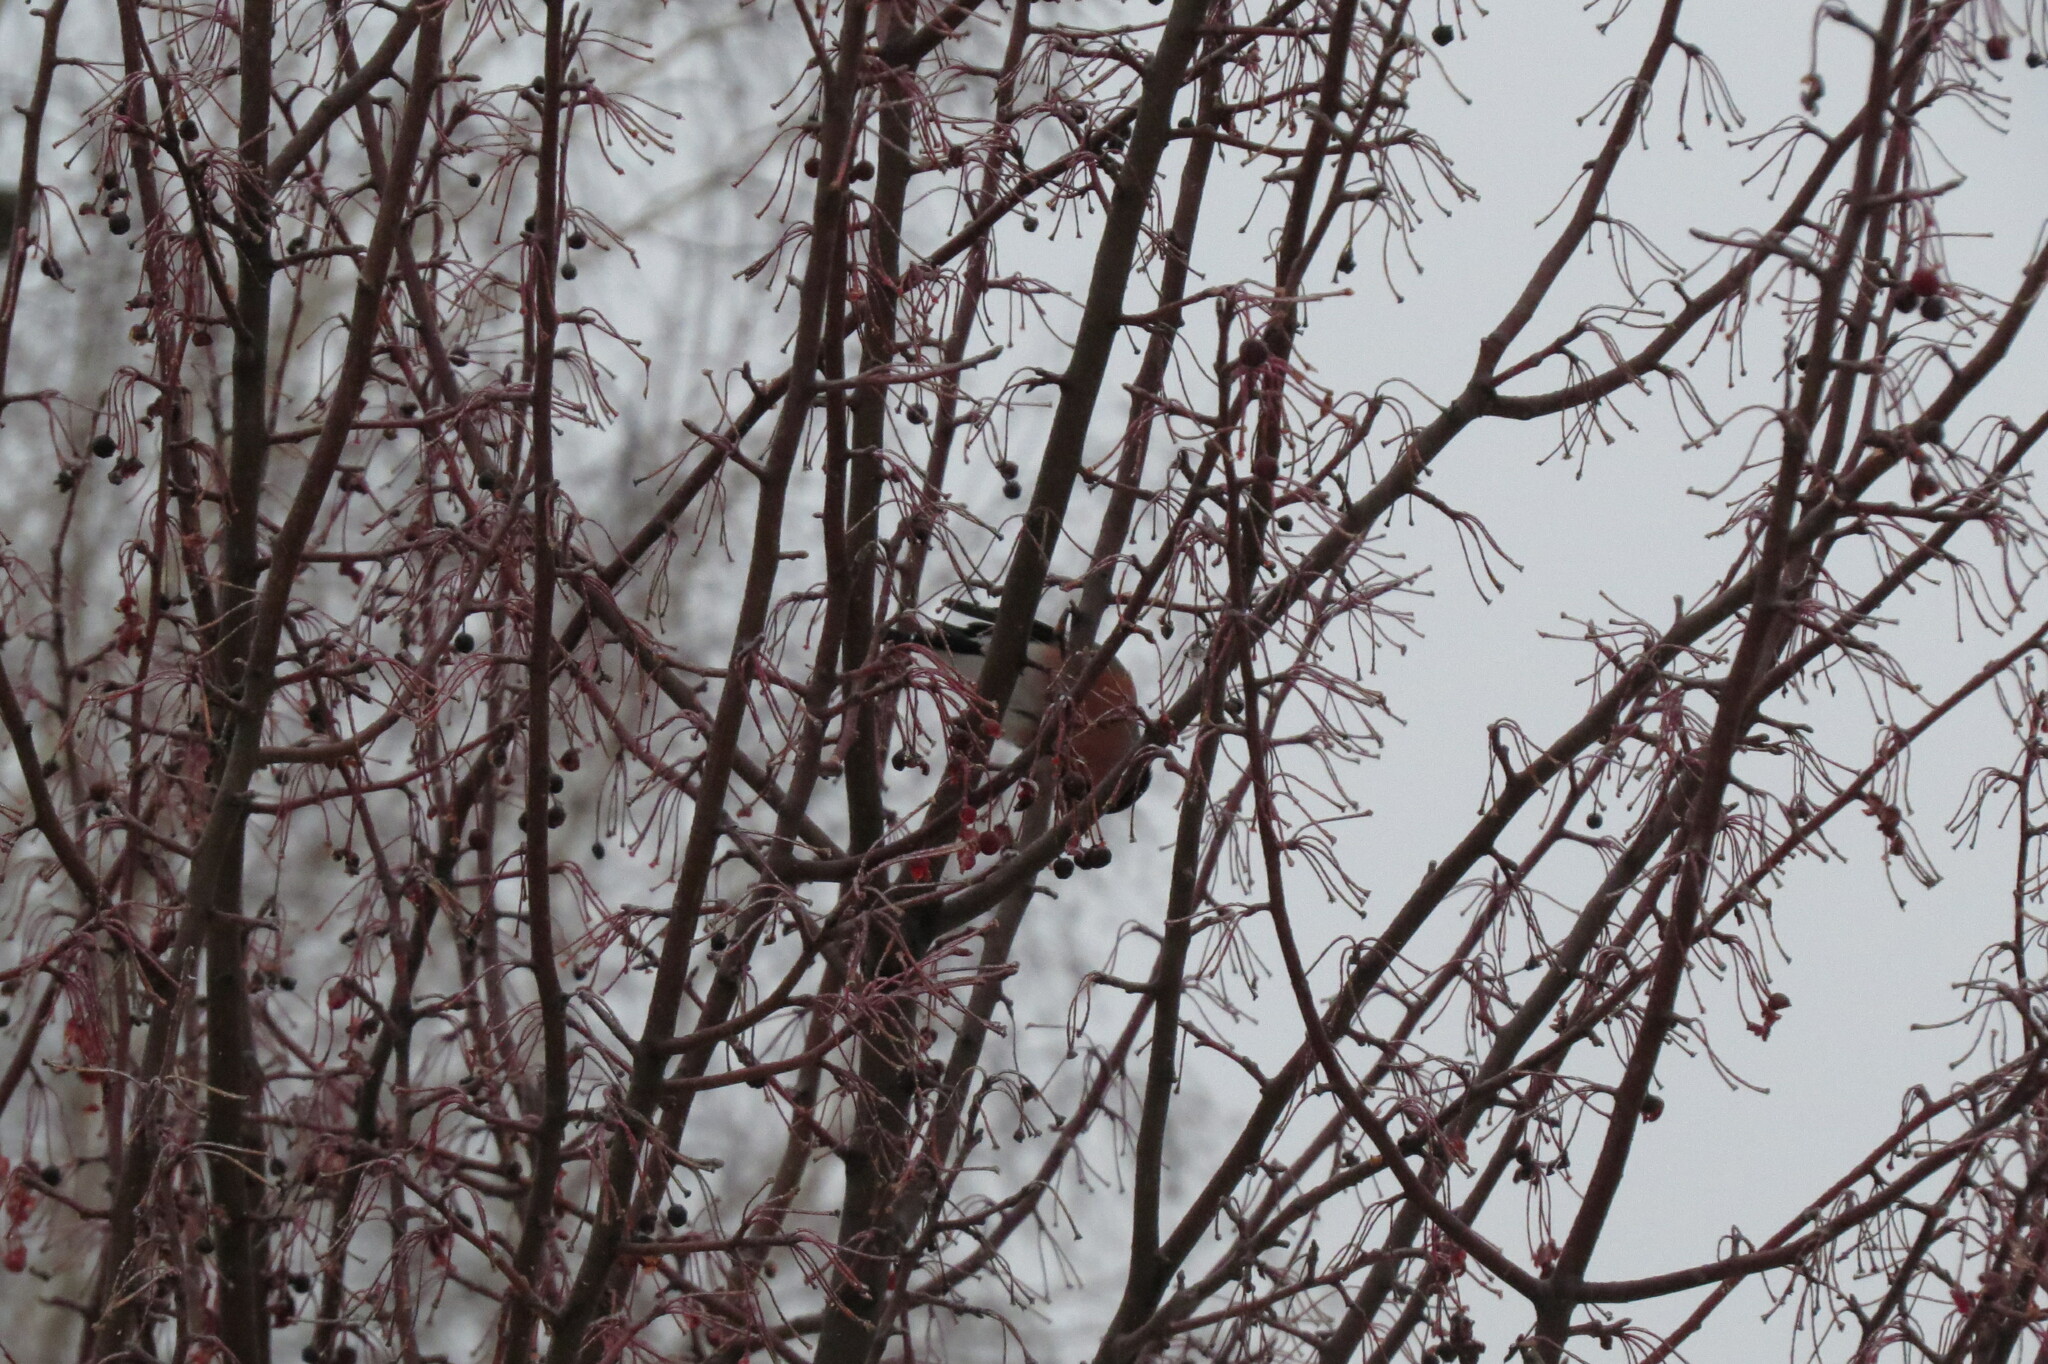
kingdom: Animalia
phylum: Chordata
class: Aves
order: Passeriformes
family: Fringillidae
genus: Pyrrhula
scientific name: Pyrrhula pyrrhula
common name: Eurasian bullfinch
